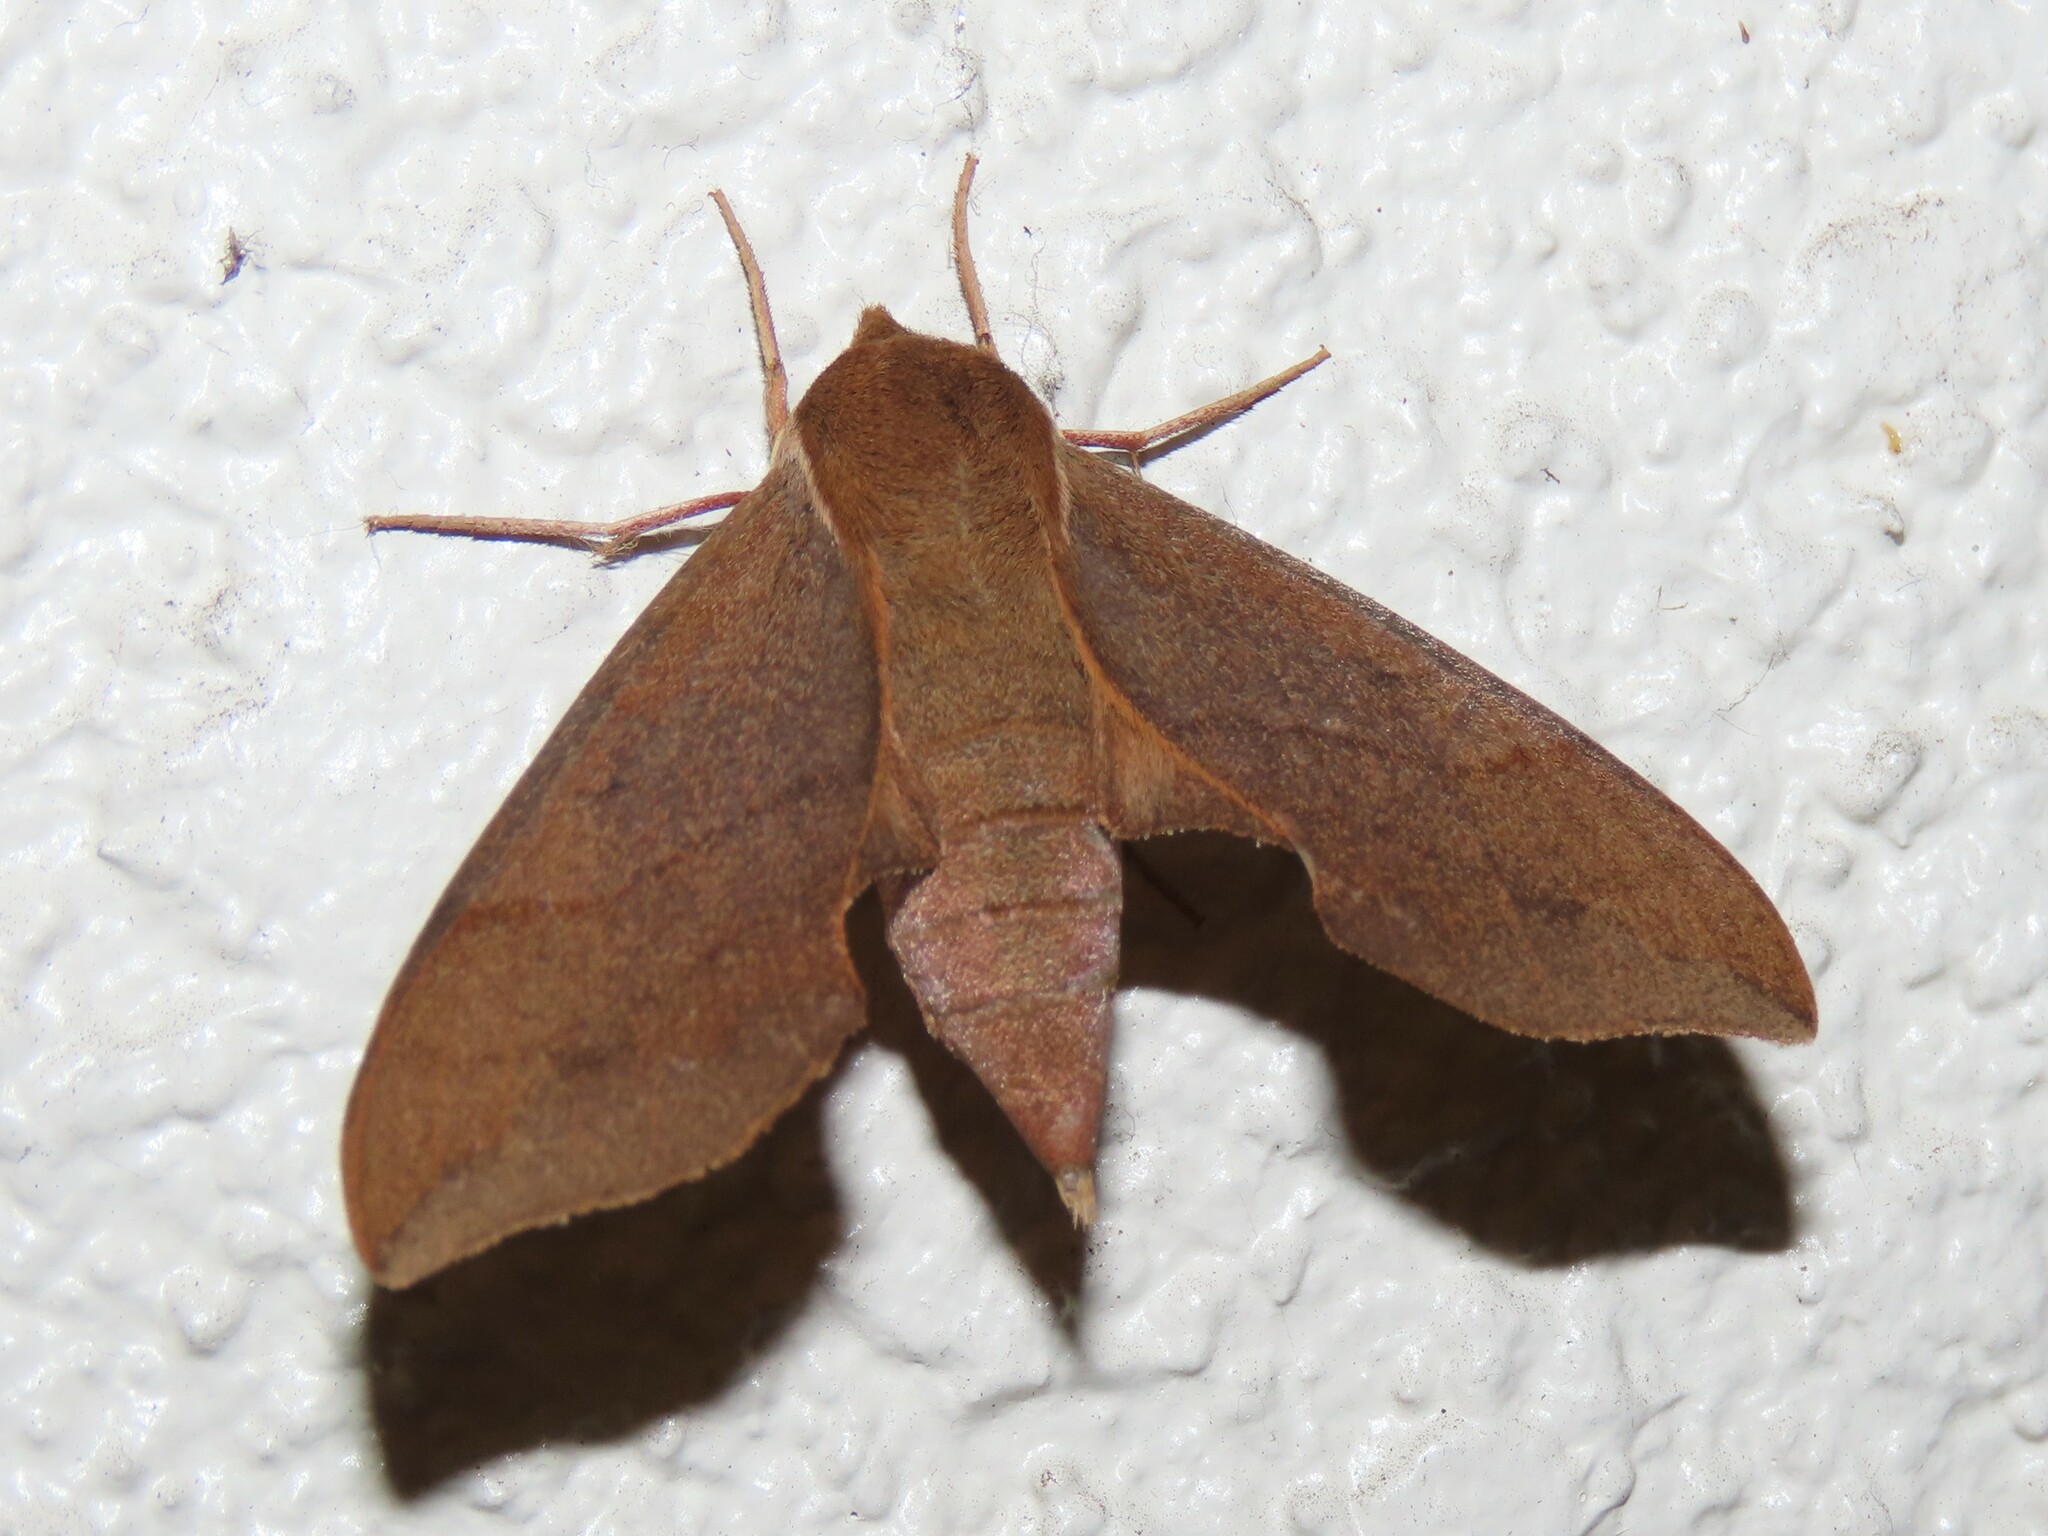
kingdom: Animalia
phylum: Arthropoda
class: Insecta
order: Lepidoptera
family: Sphingidae
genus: Darapsa
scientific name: Darapsa myron
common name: Hog sphinx
